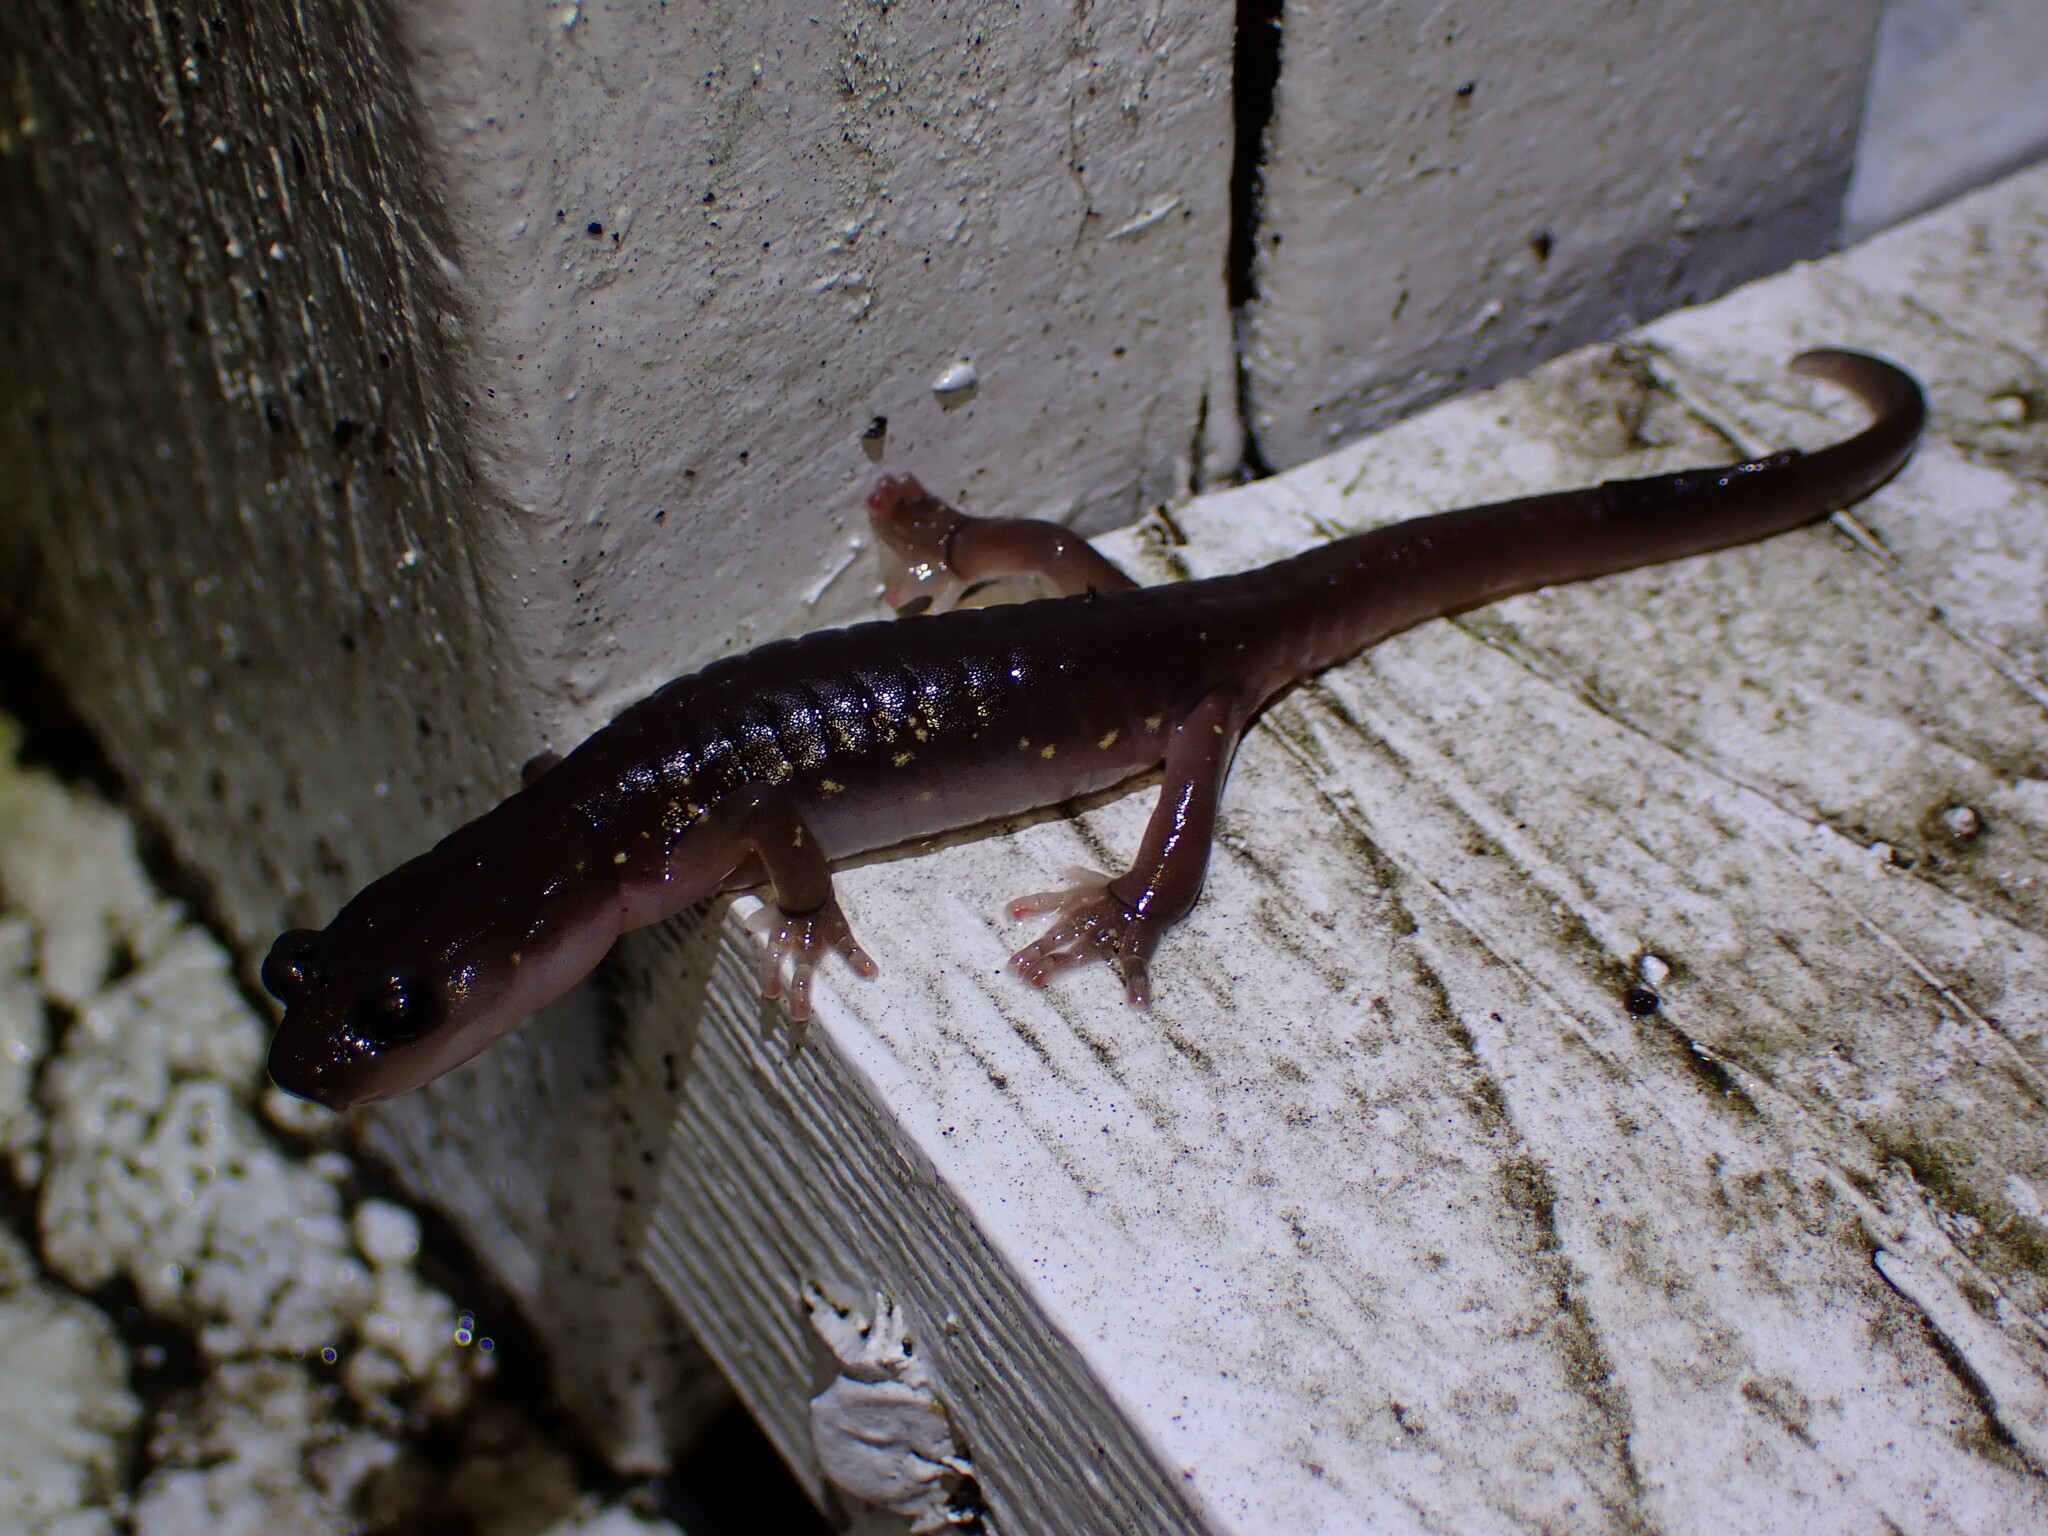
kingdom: Animalia
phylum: Chordata
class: Amphibia
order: Caudata
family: Plethodontidae
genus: Aneides
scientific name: Aneides lugubris
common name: Arboreal salamander
